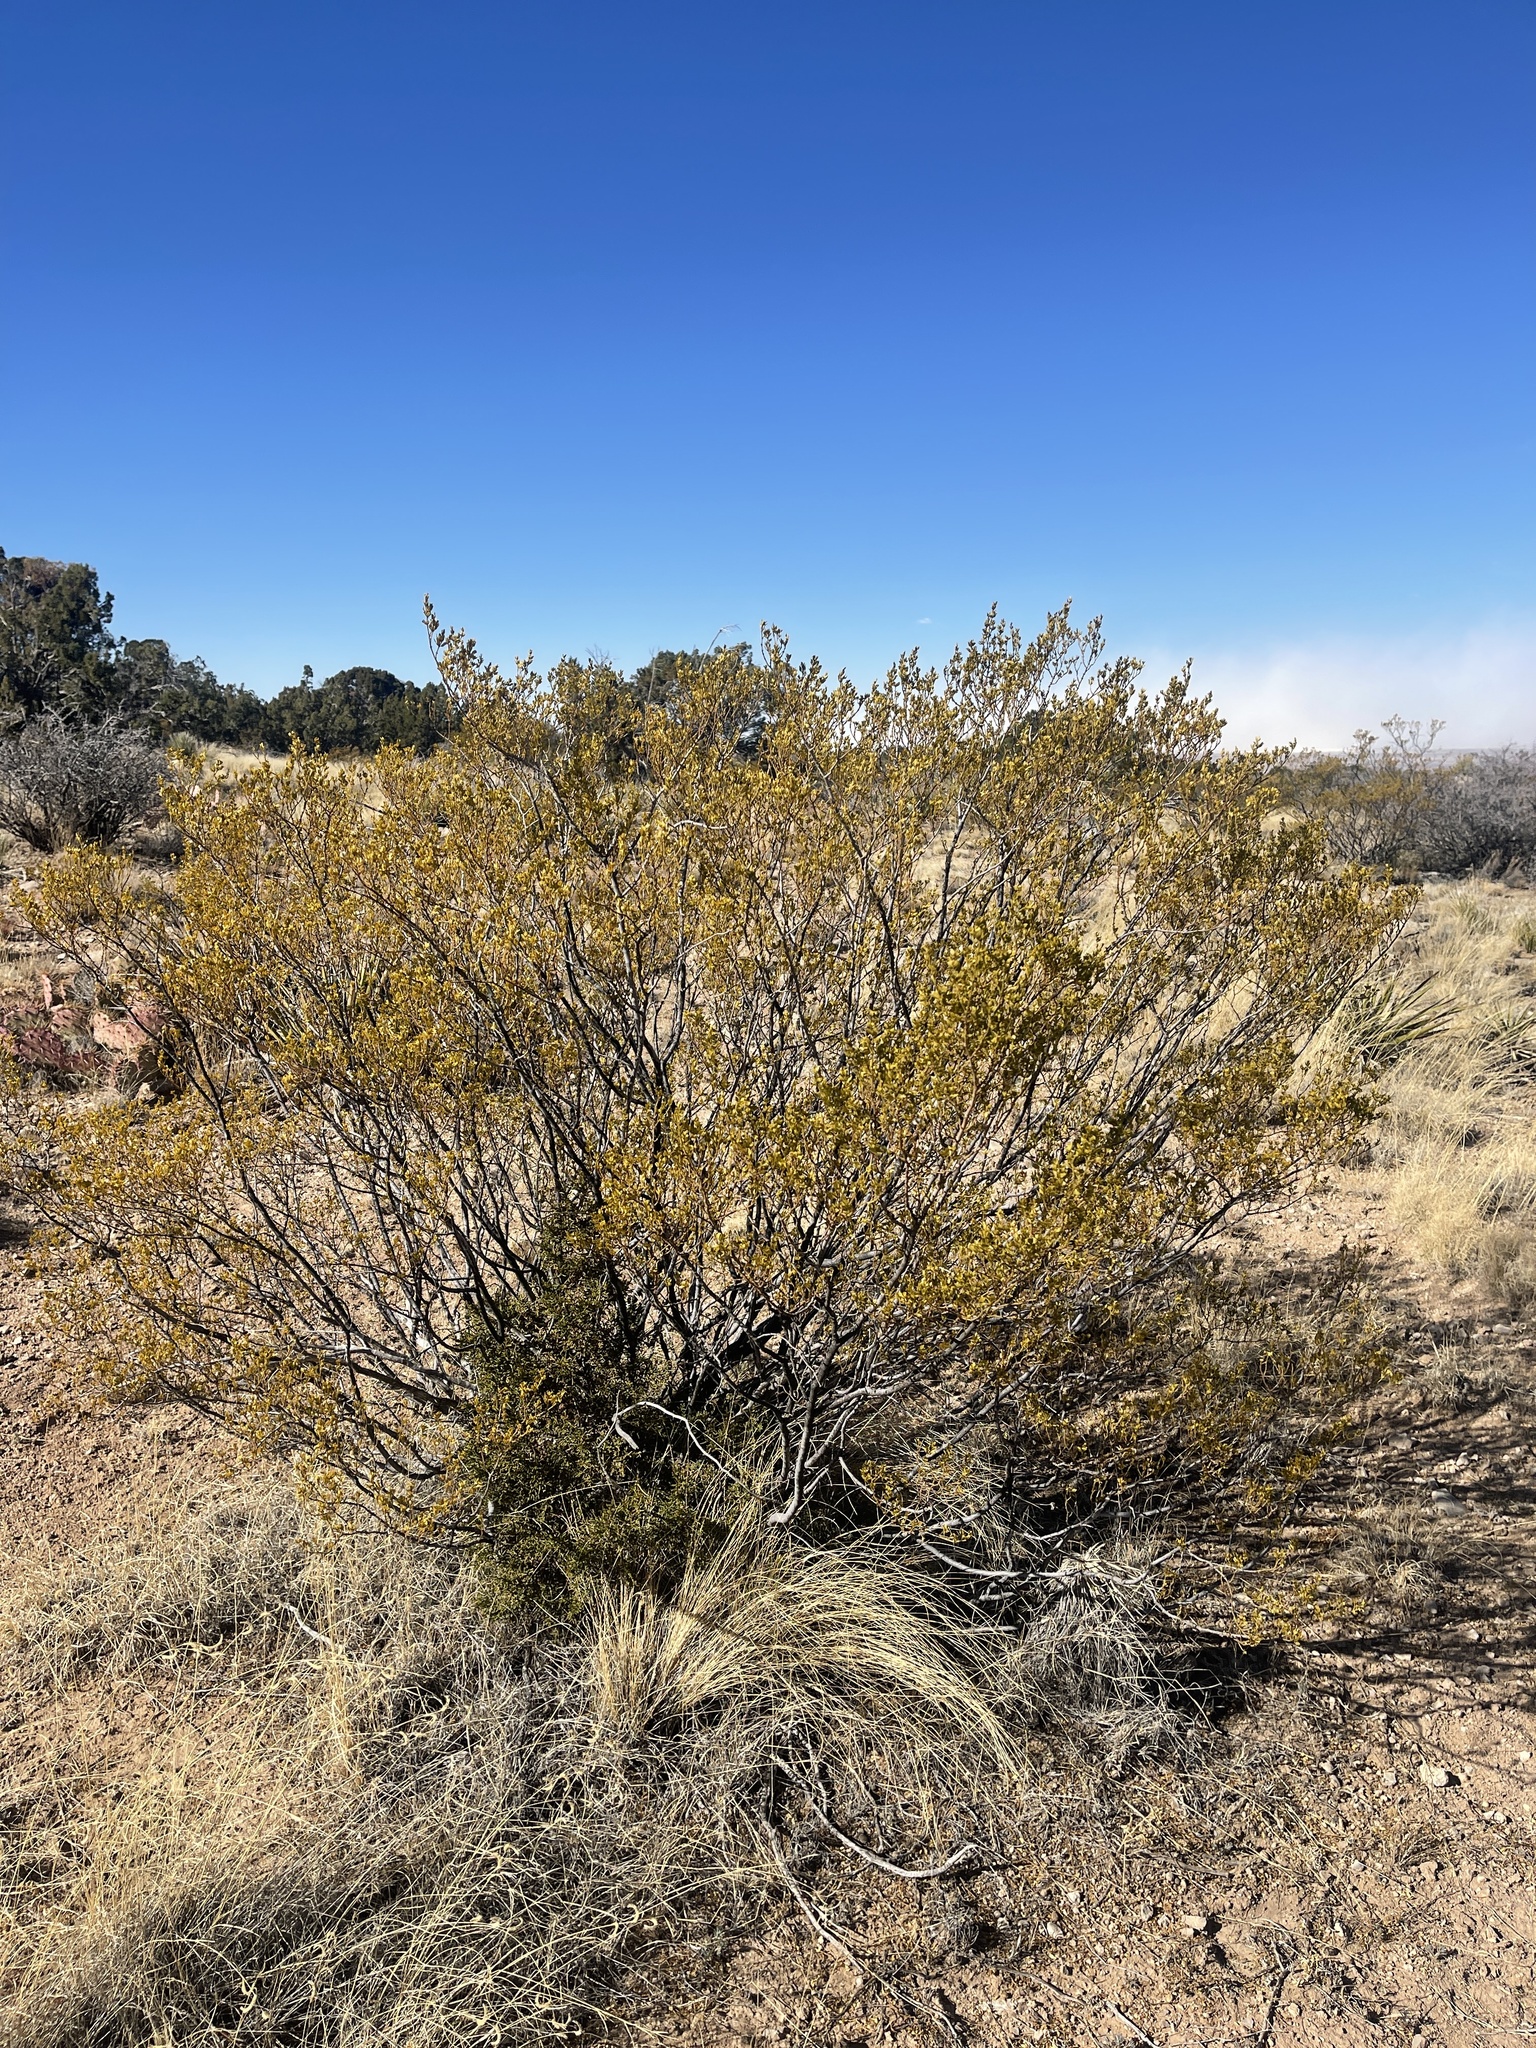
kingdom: Plantae
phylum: Tracheophyta
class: Magnoliopsida
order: Zygophyllales
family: Zygophyllaceae
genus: Larrea
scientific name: Larrea tridentata
